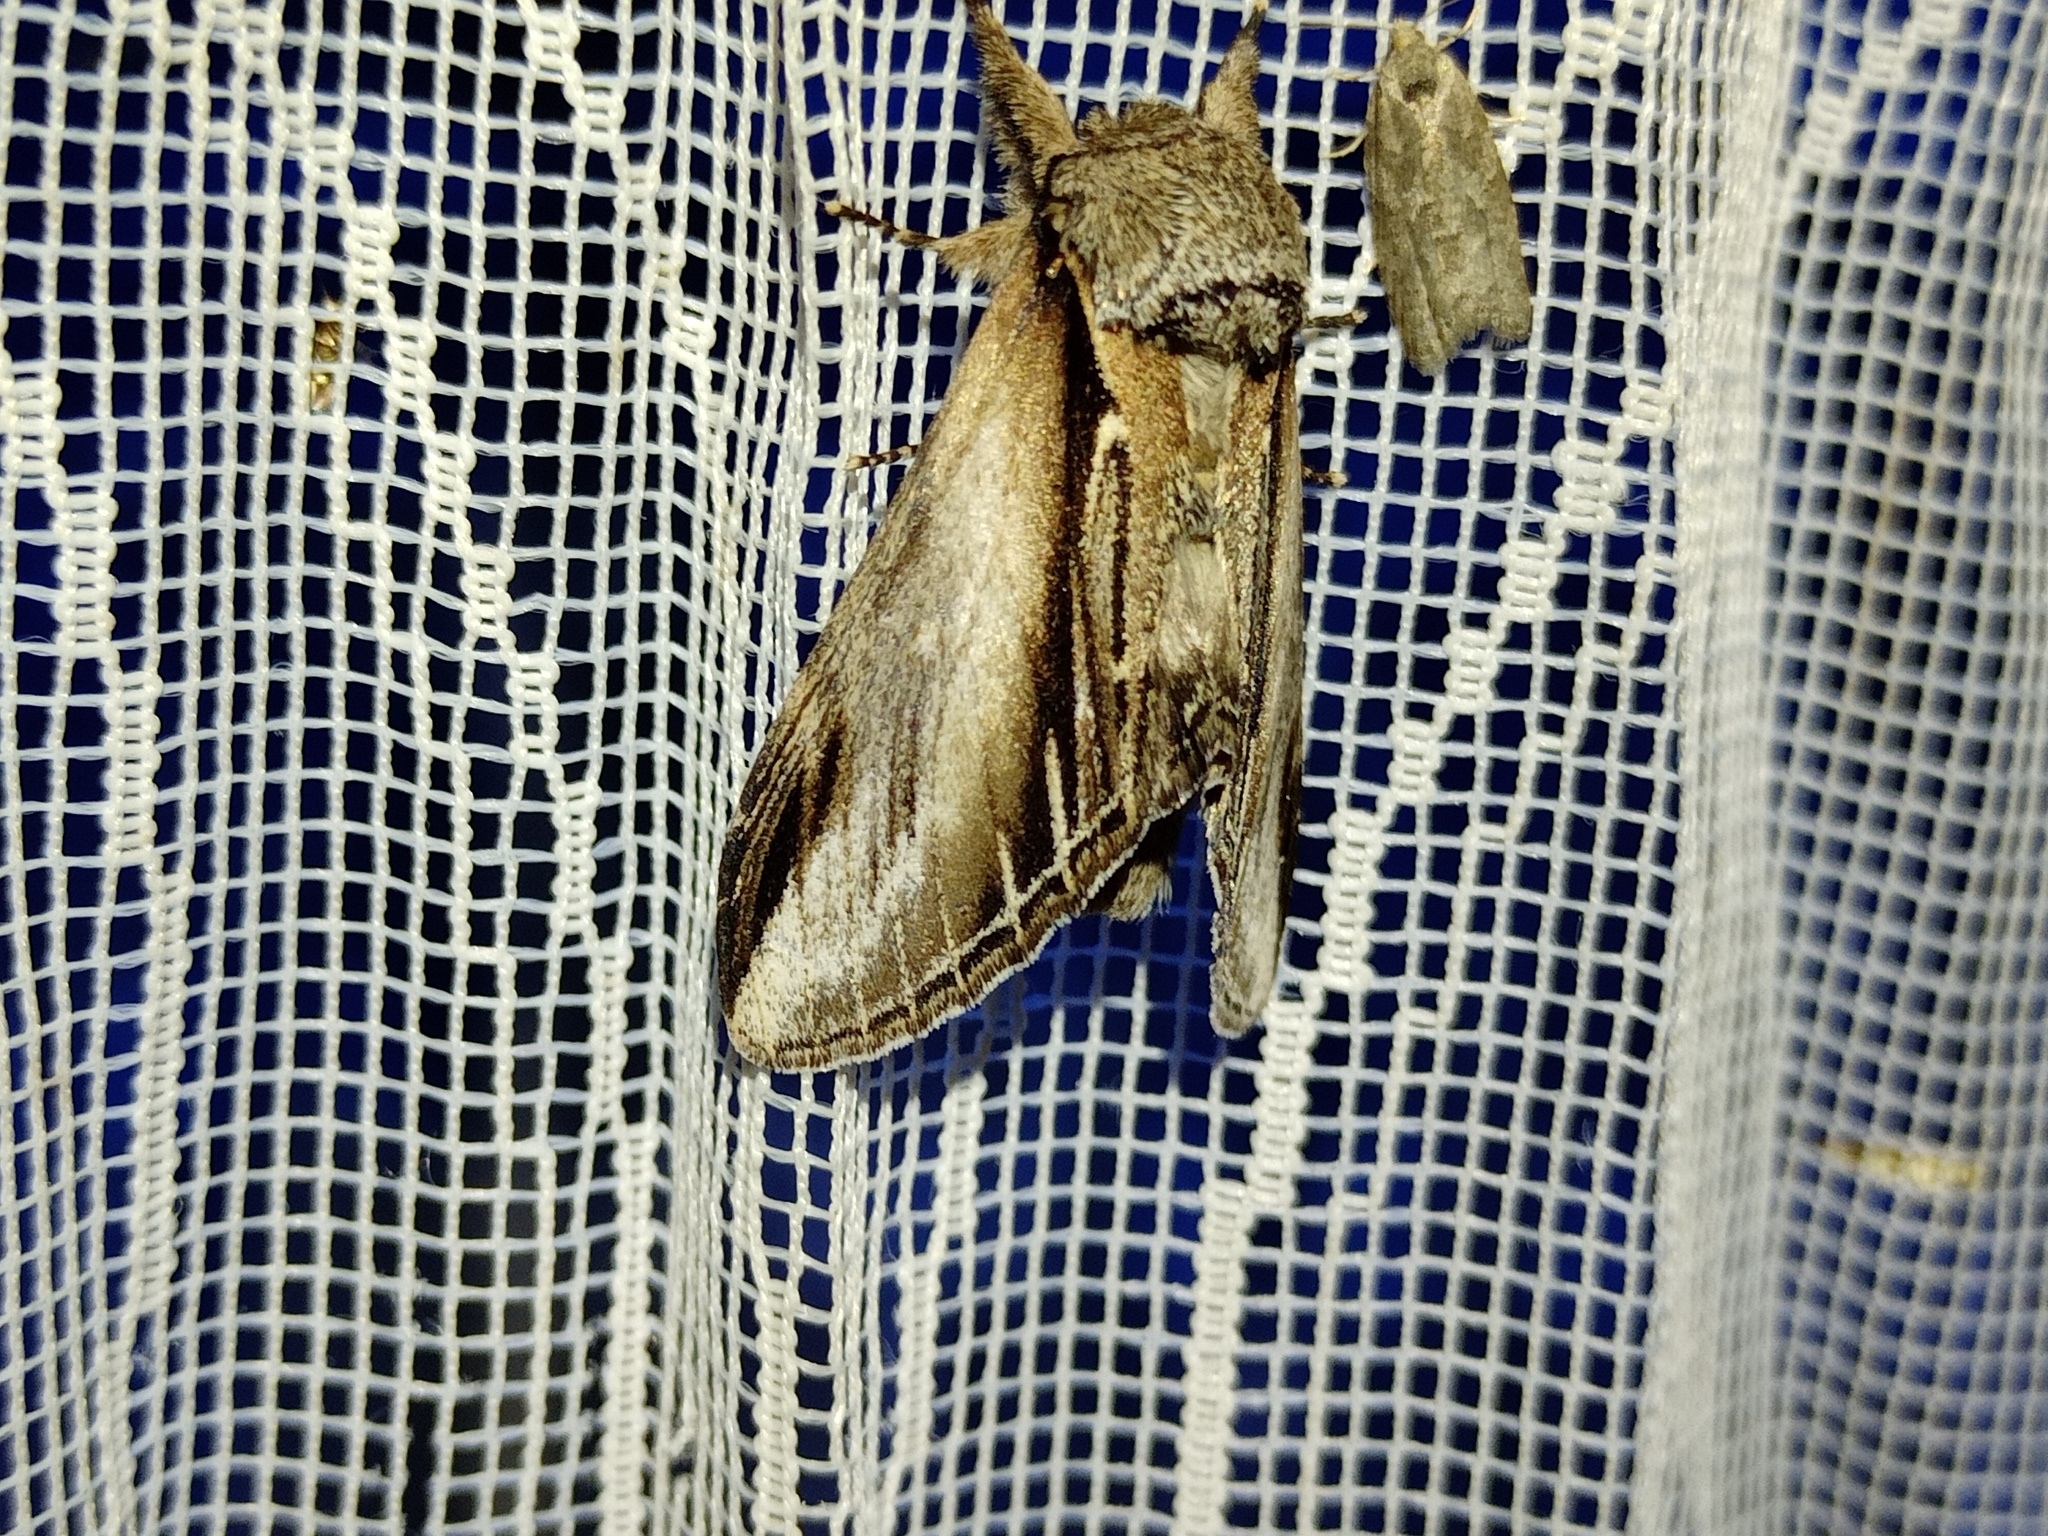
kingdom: Animalia
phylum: Arthropoda
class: Insecta
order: Lepidoptera
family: Notodontidae
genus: Pheosia
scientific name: Pheosia tremula
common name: Swallow prominent
